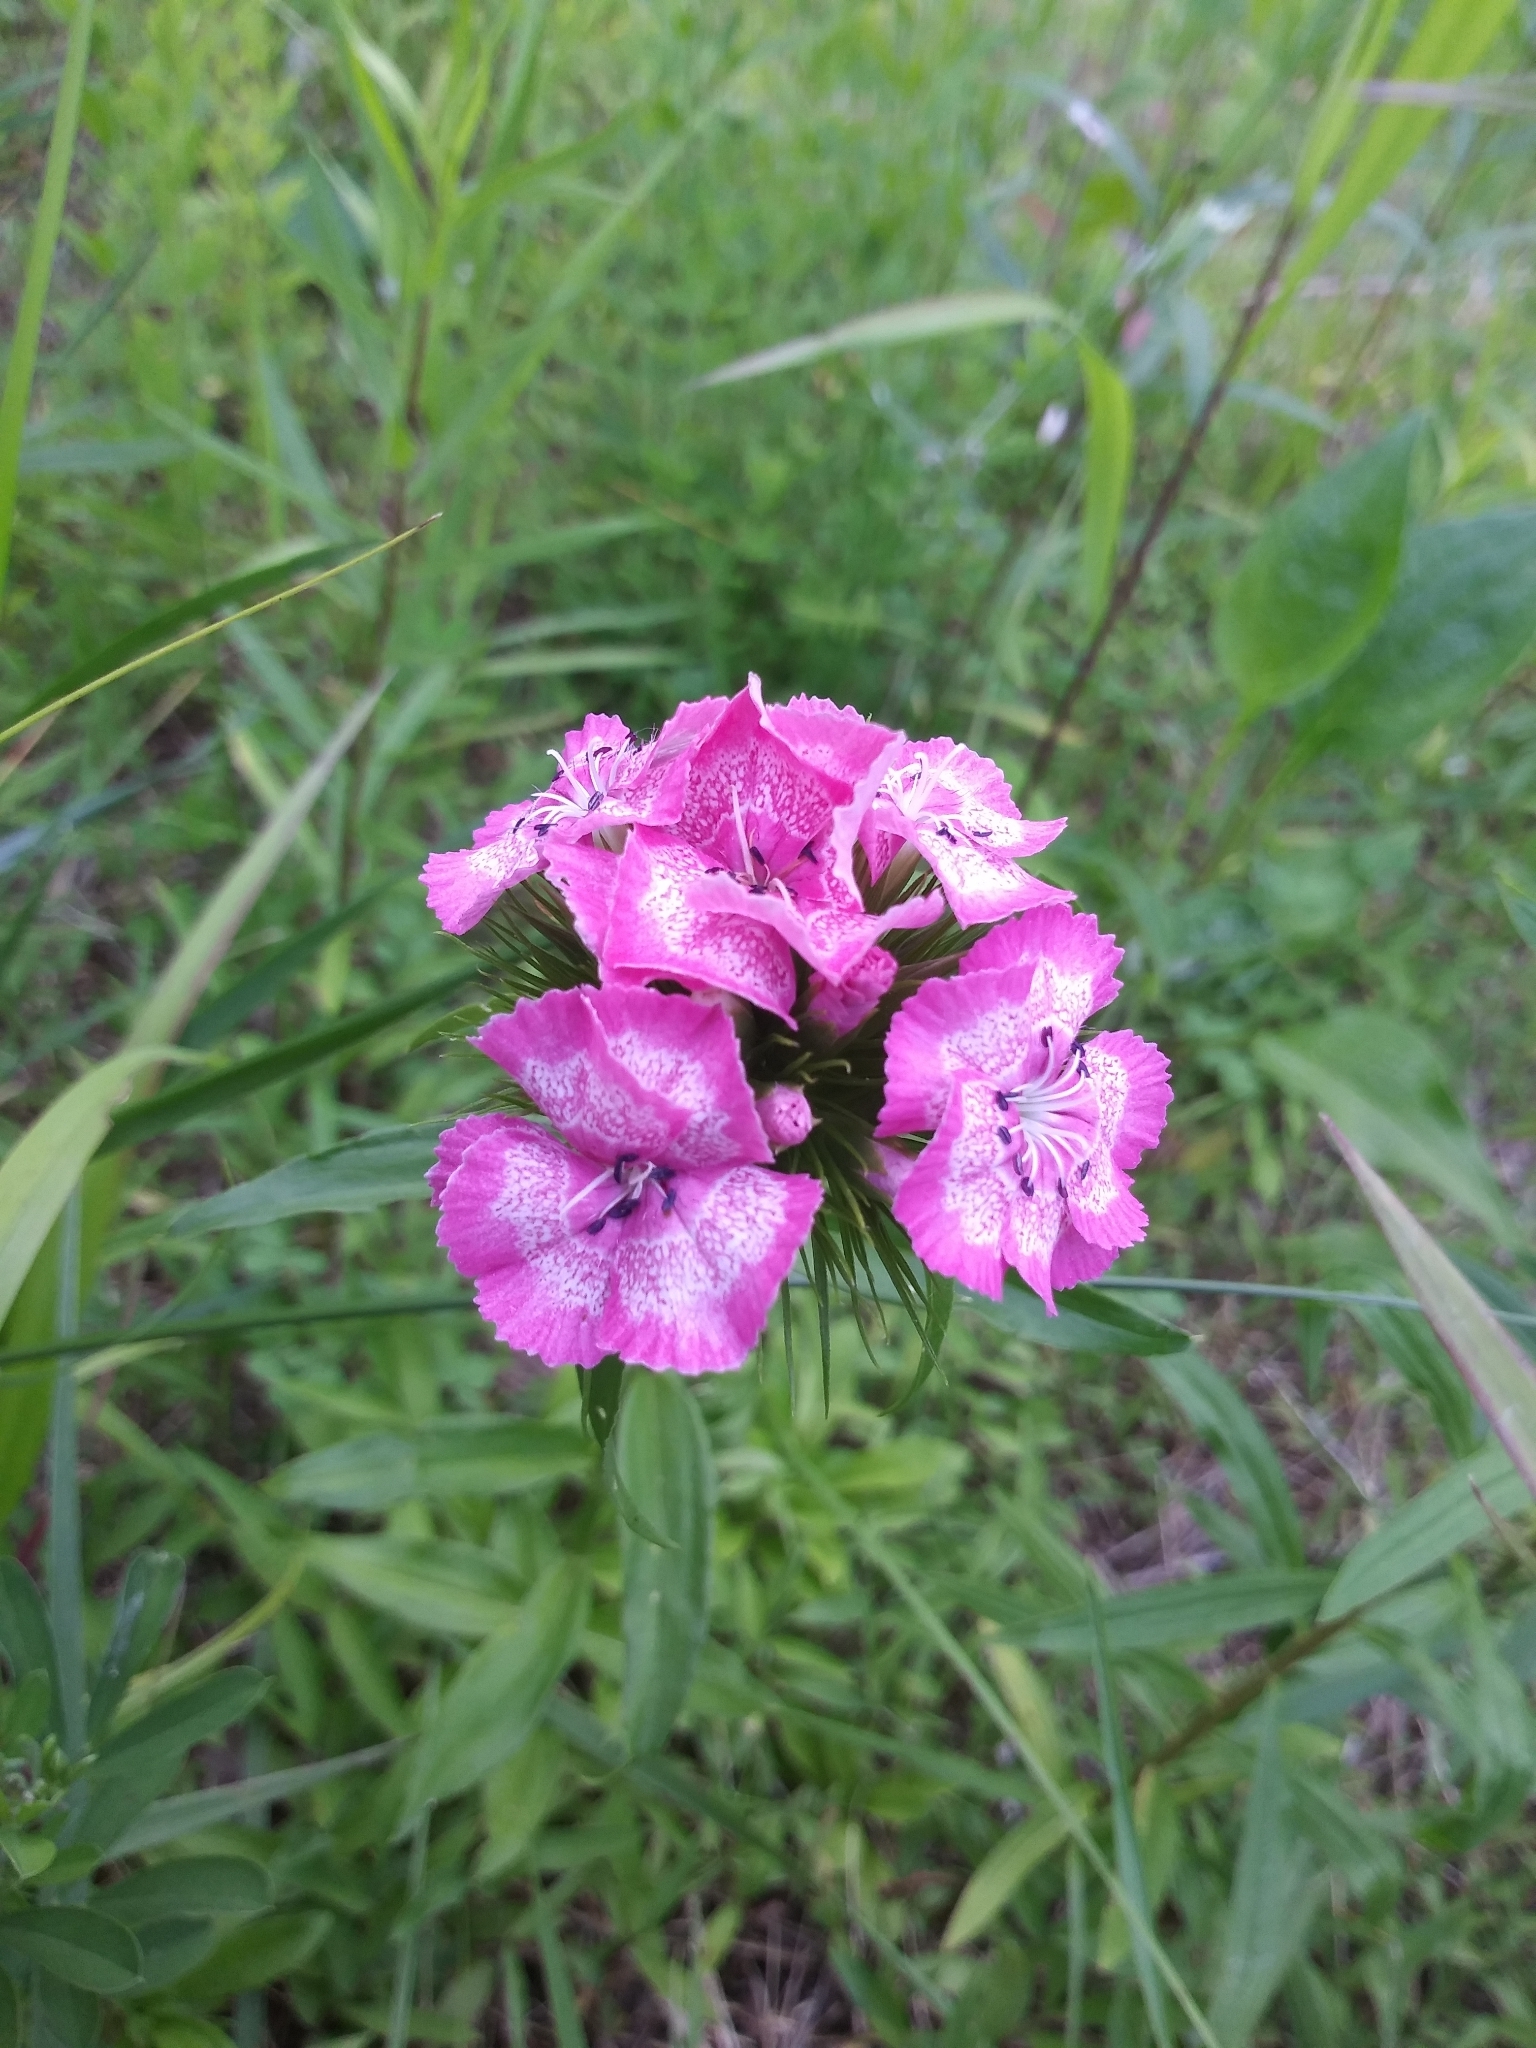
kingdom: Plantae
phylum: Tracheophyta
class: Magnoliopsida
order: Caryophyllales
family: Caryophyllaceae
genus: Dianthus
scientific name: Dianthus barbatus
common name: Sweet-william
